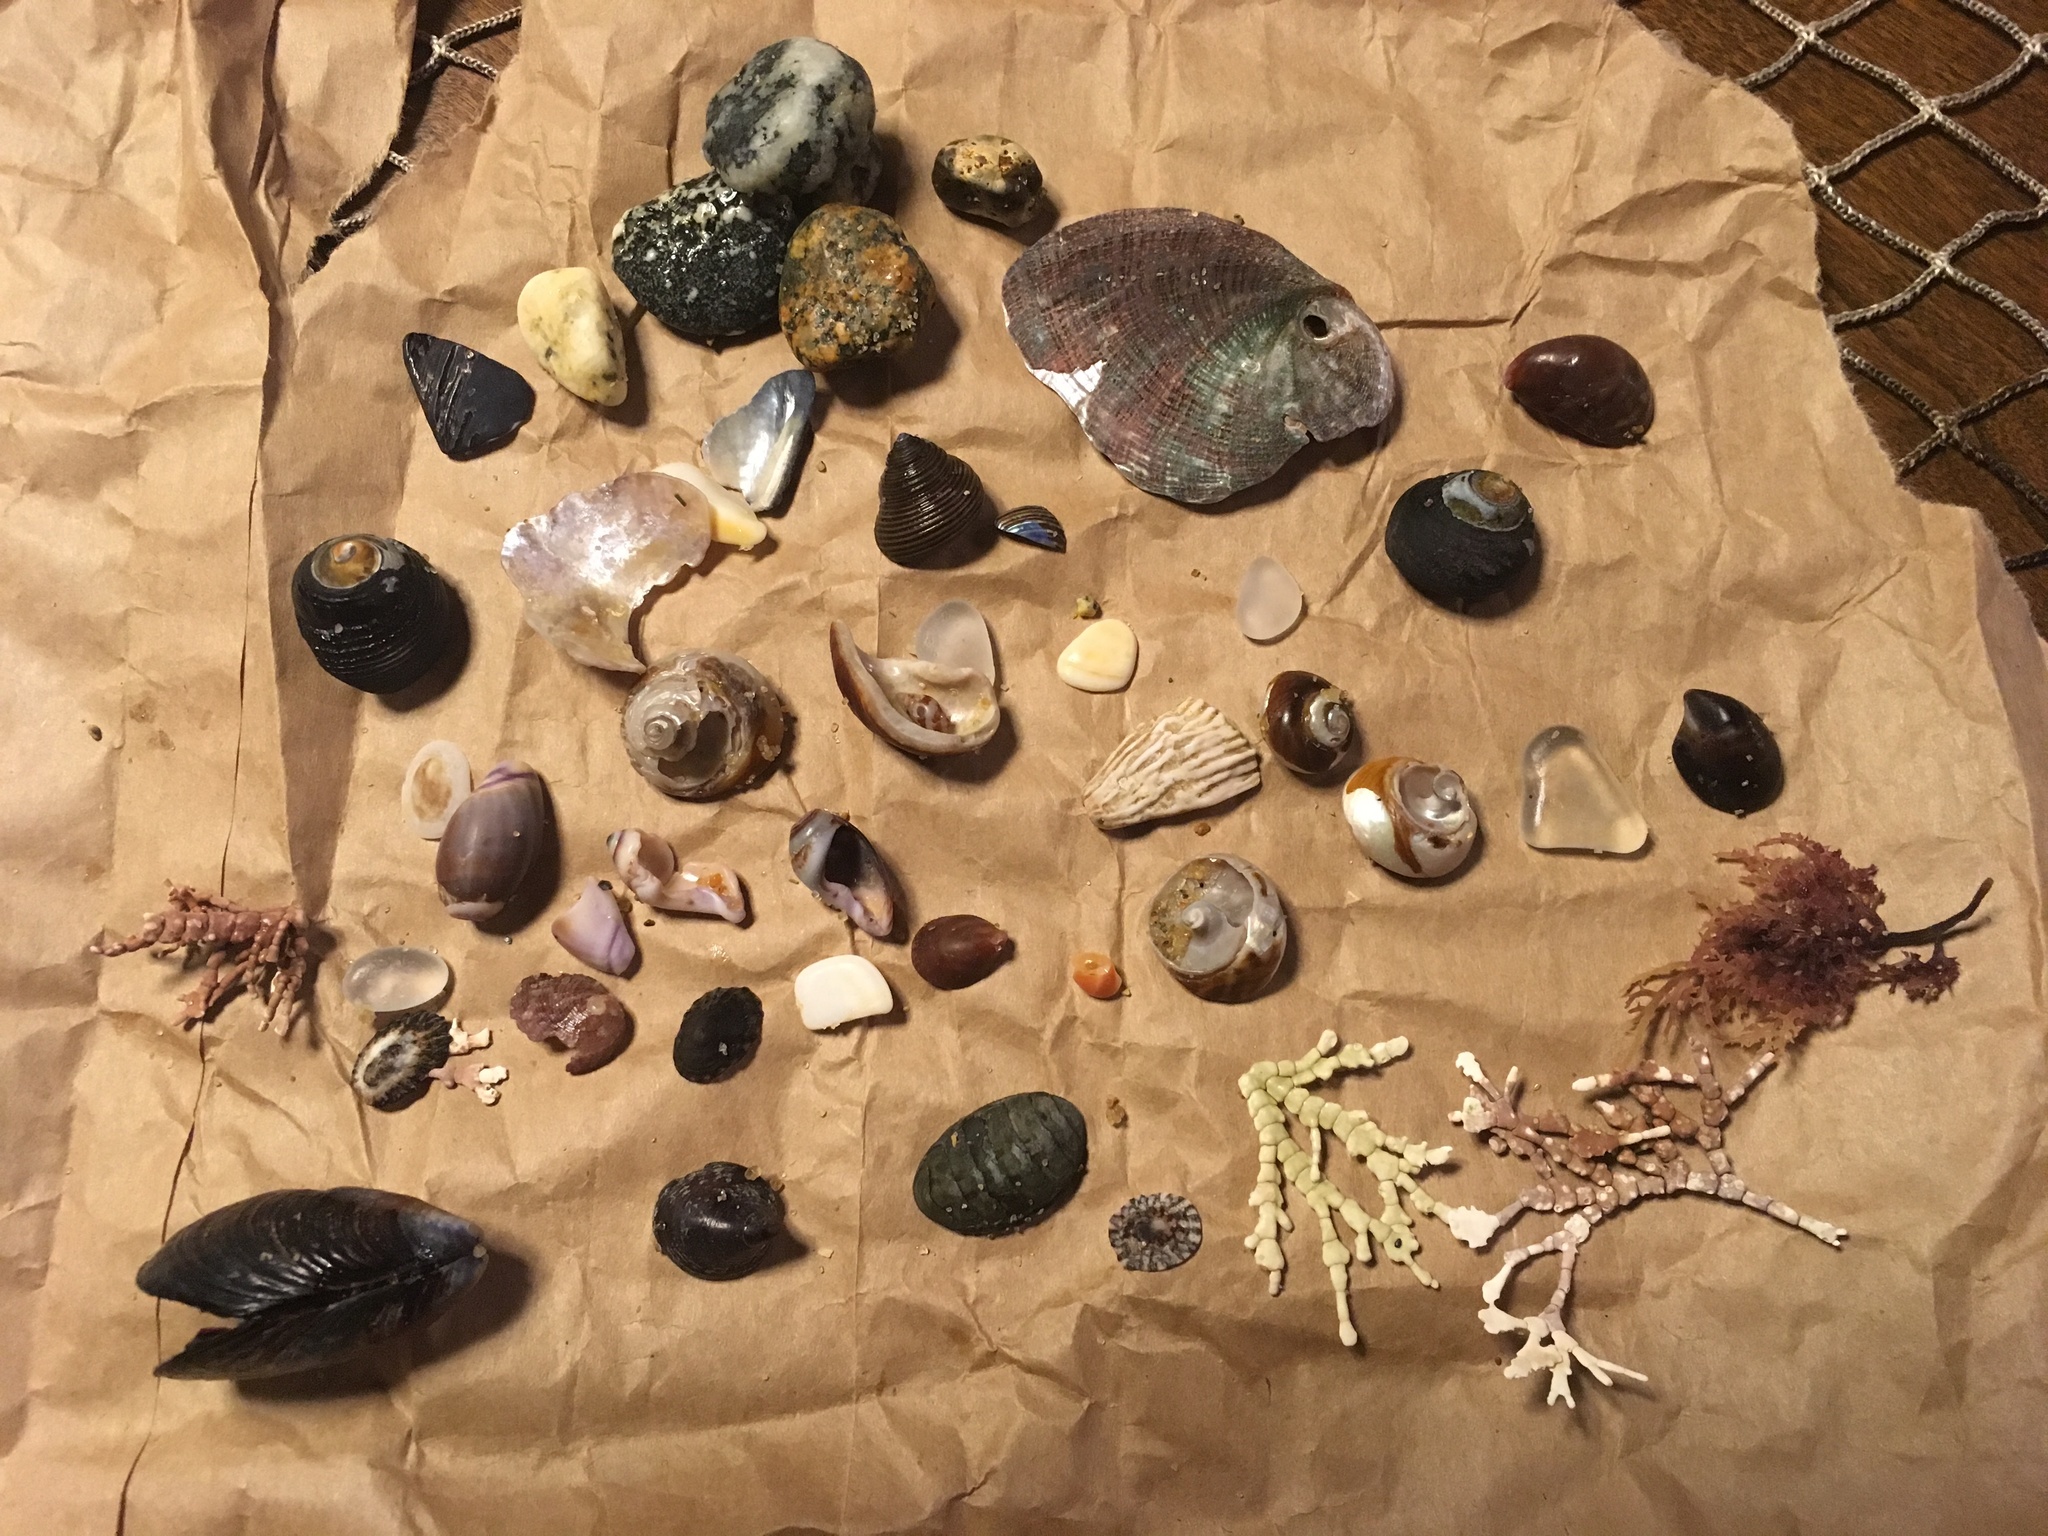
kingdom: Animalia
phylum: Mollusca
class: Polyplacophora
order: Chitonida
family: Tonicellidae
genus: Cyanoplax
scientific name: Cyanoplax hartwegii
